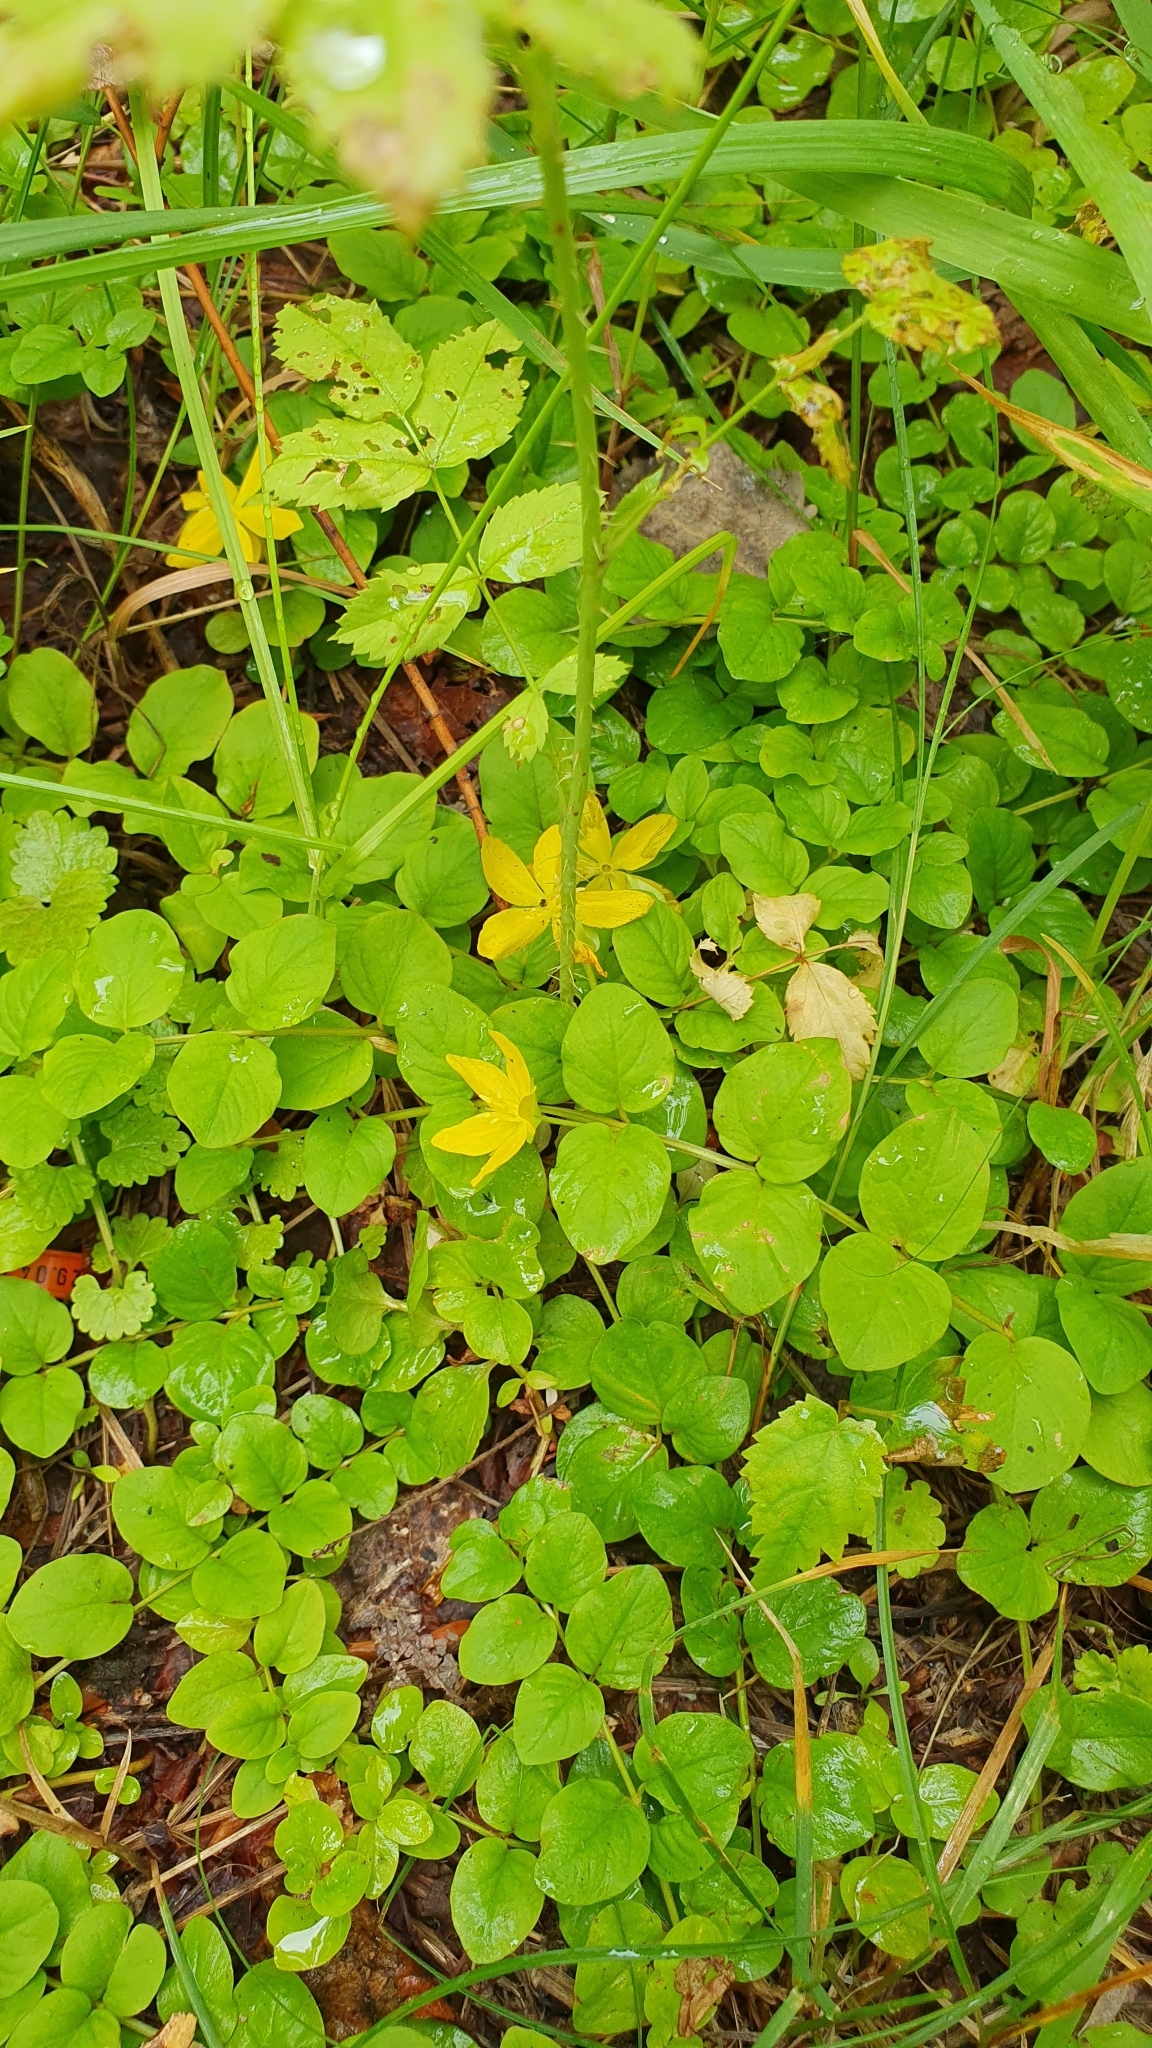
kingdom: Plantae
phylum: Tracheophyta
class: Magnoliopsida
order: Ericales
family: Primulaceae
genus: Lysimachia
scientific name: Lysimachia nummularia
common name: Moneywort
